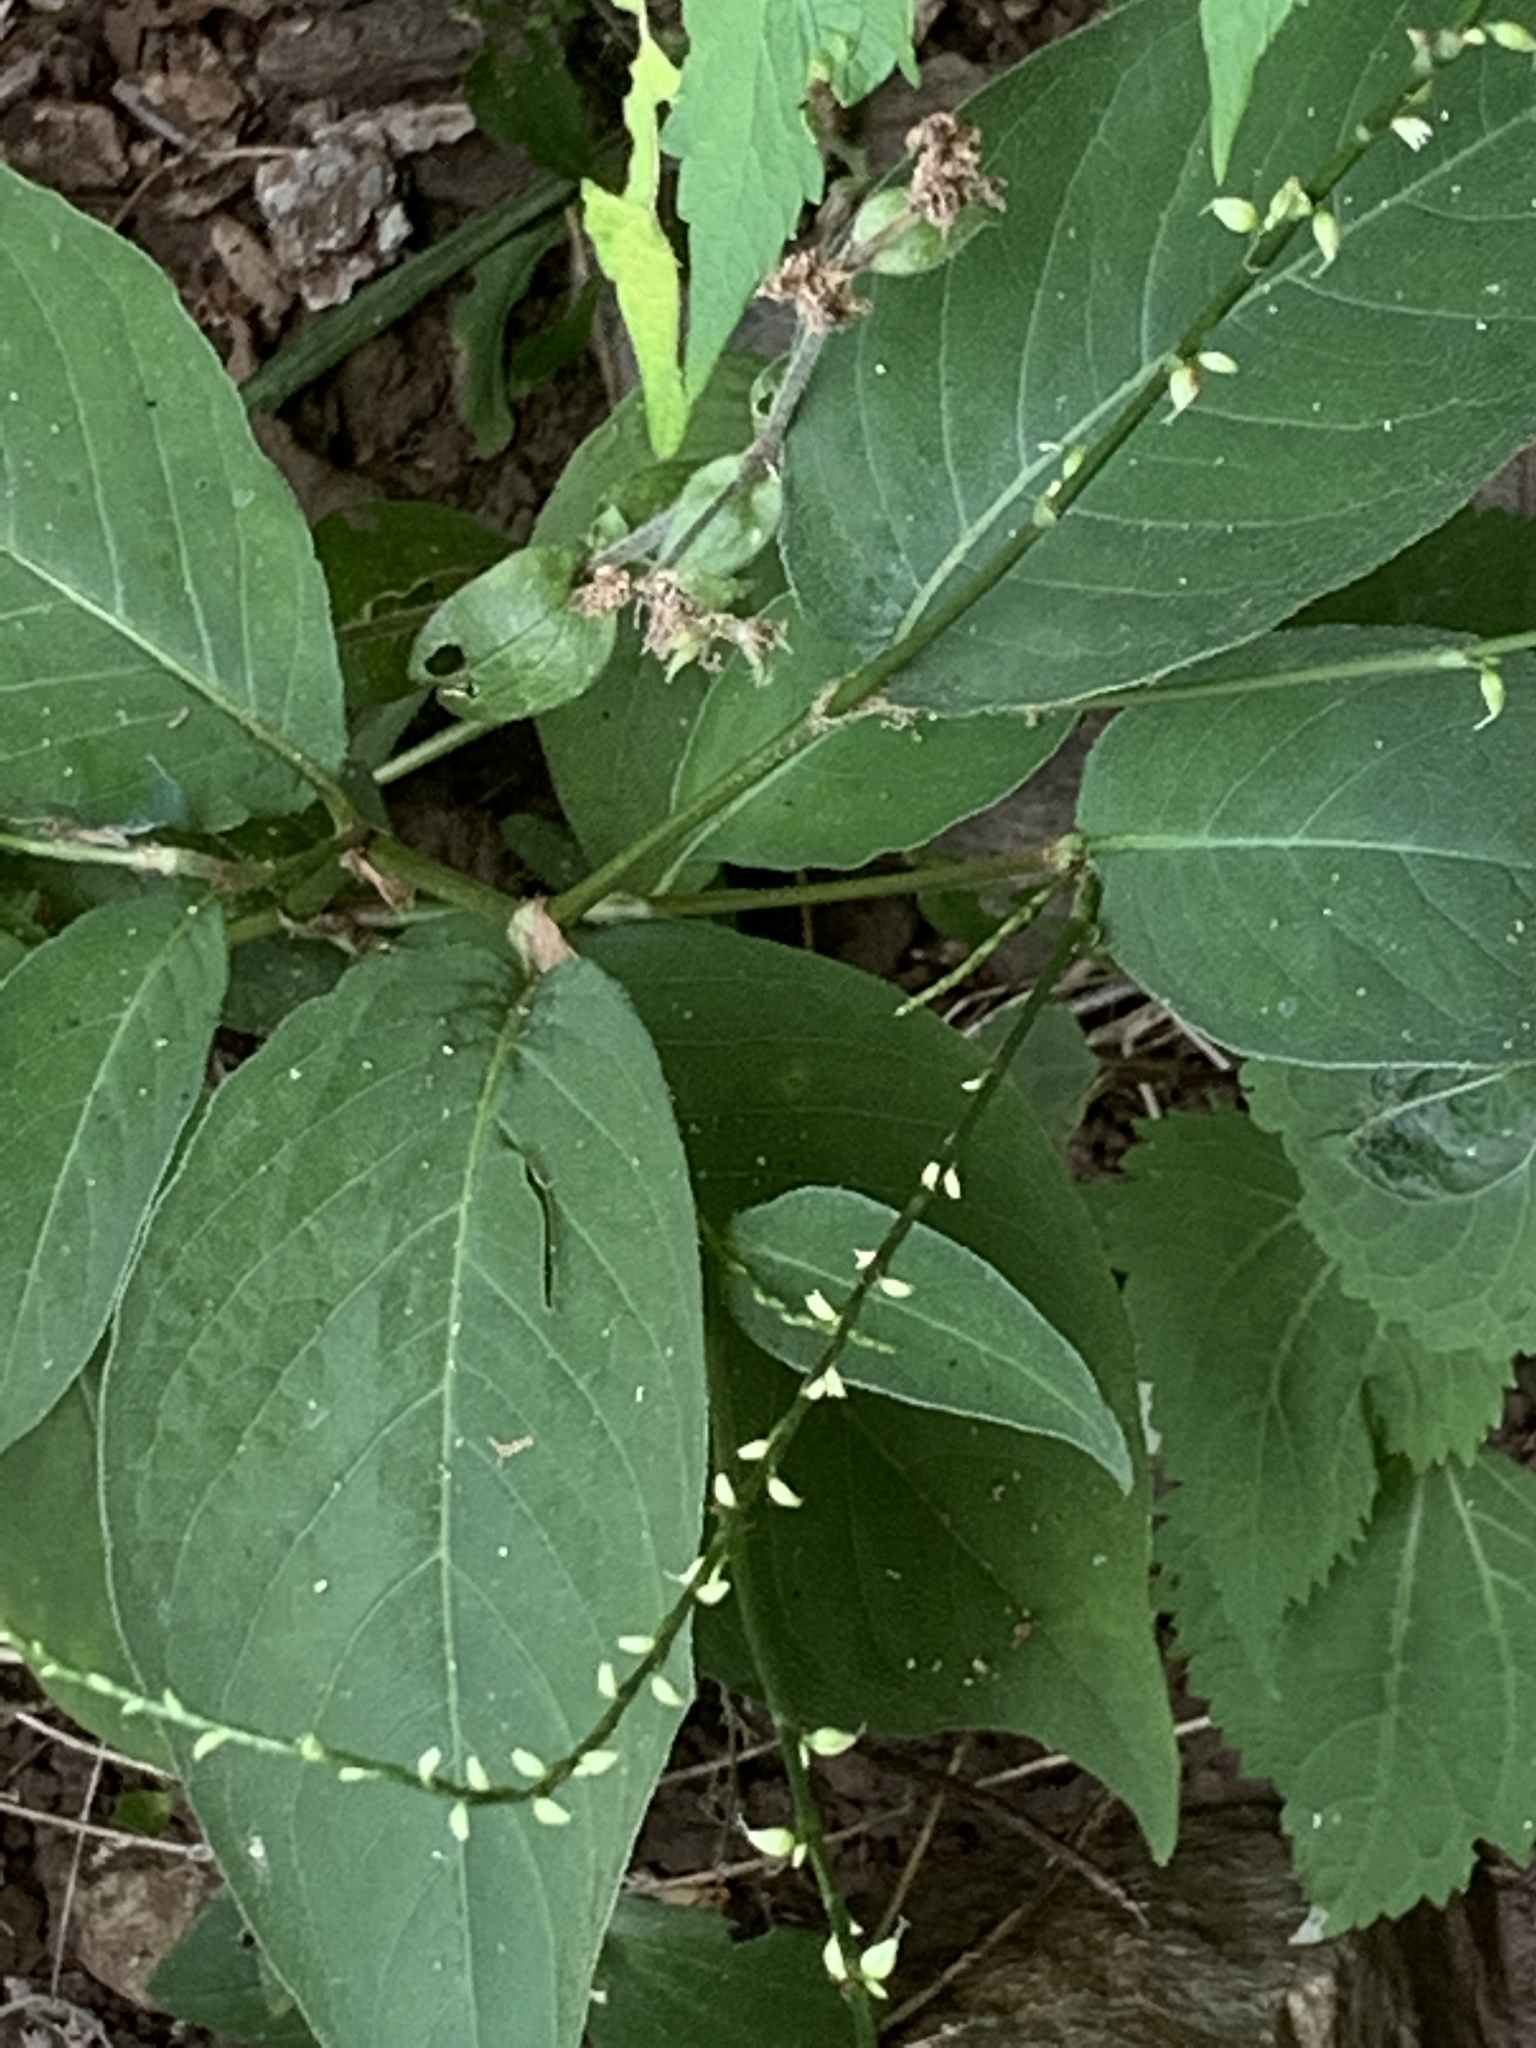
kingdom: Plantae
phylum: Tracheophyta
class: Magnoliopsida
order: Caryophyllales
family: Polygonaceae
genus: Persicaria
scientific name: Persicaria virginiana
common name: Jumpseed
